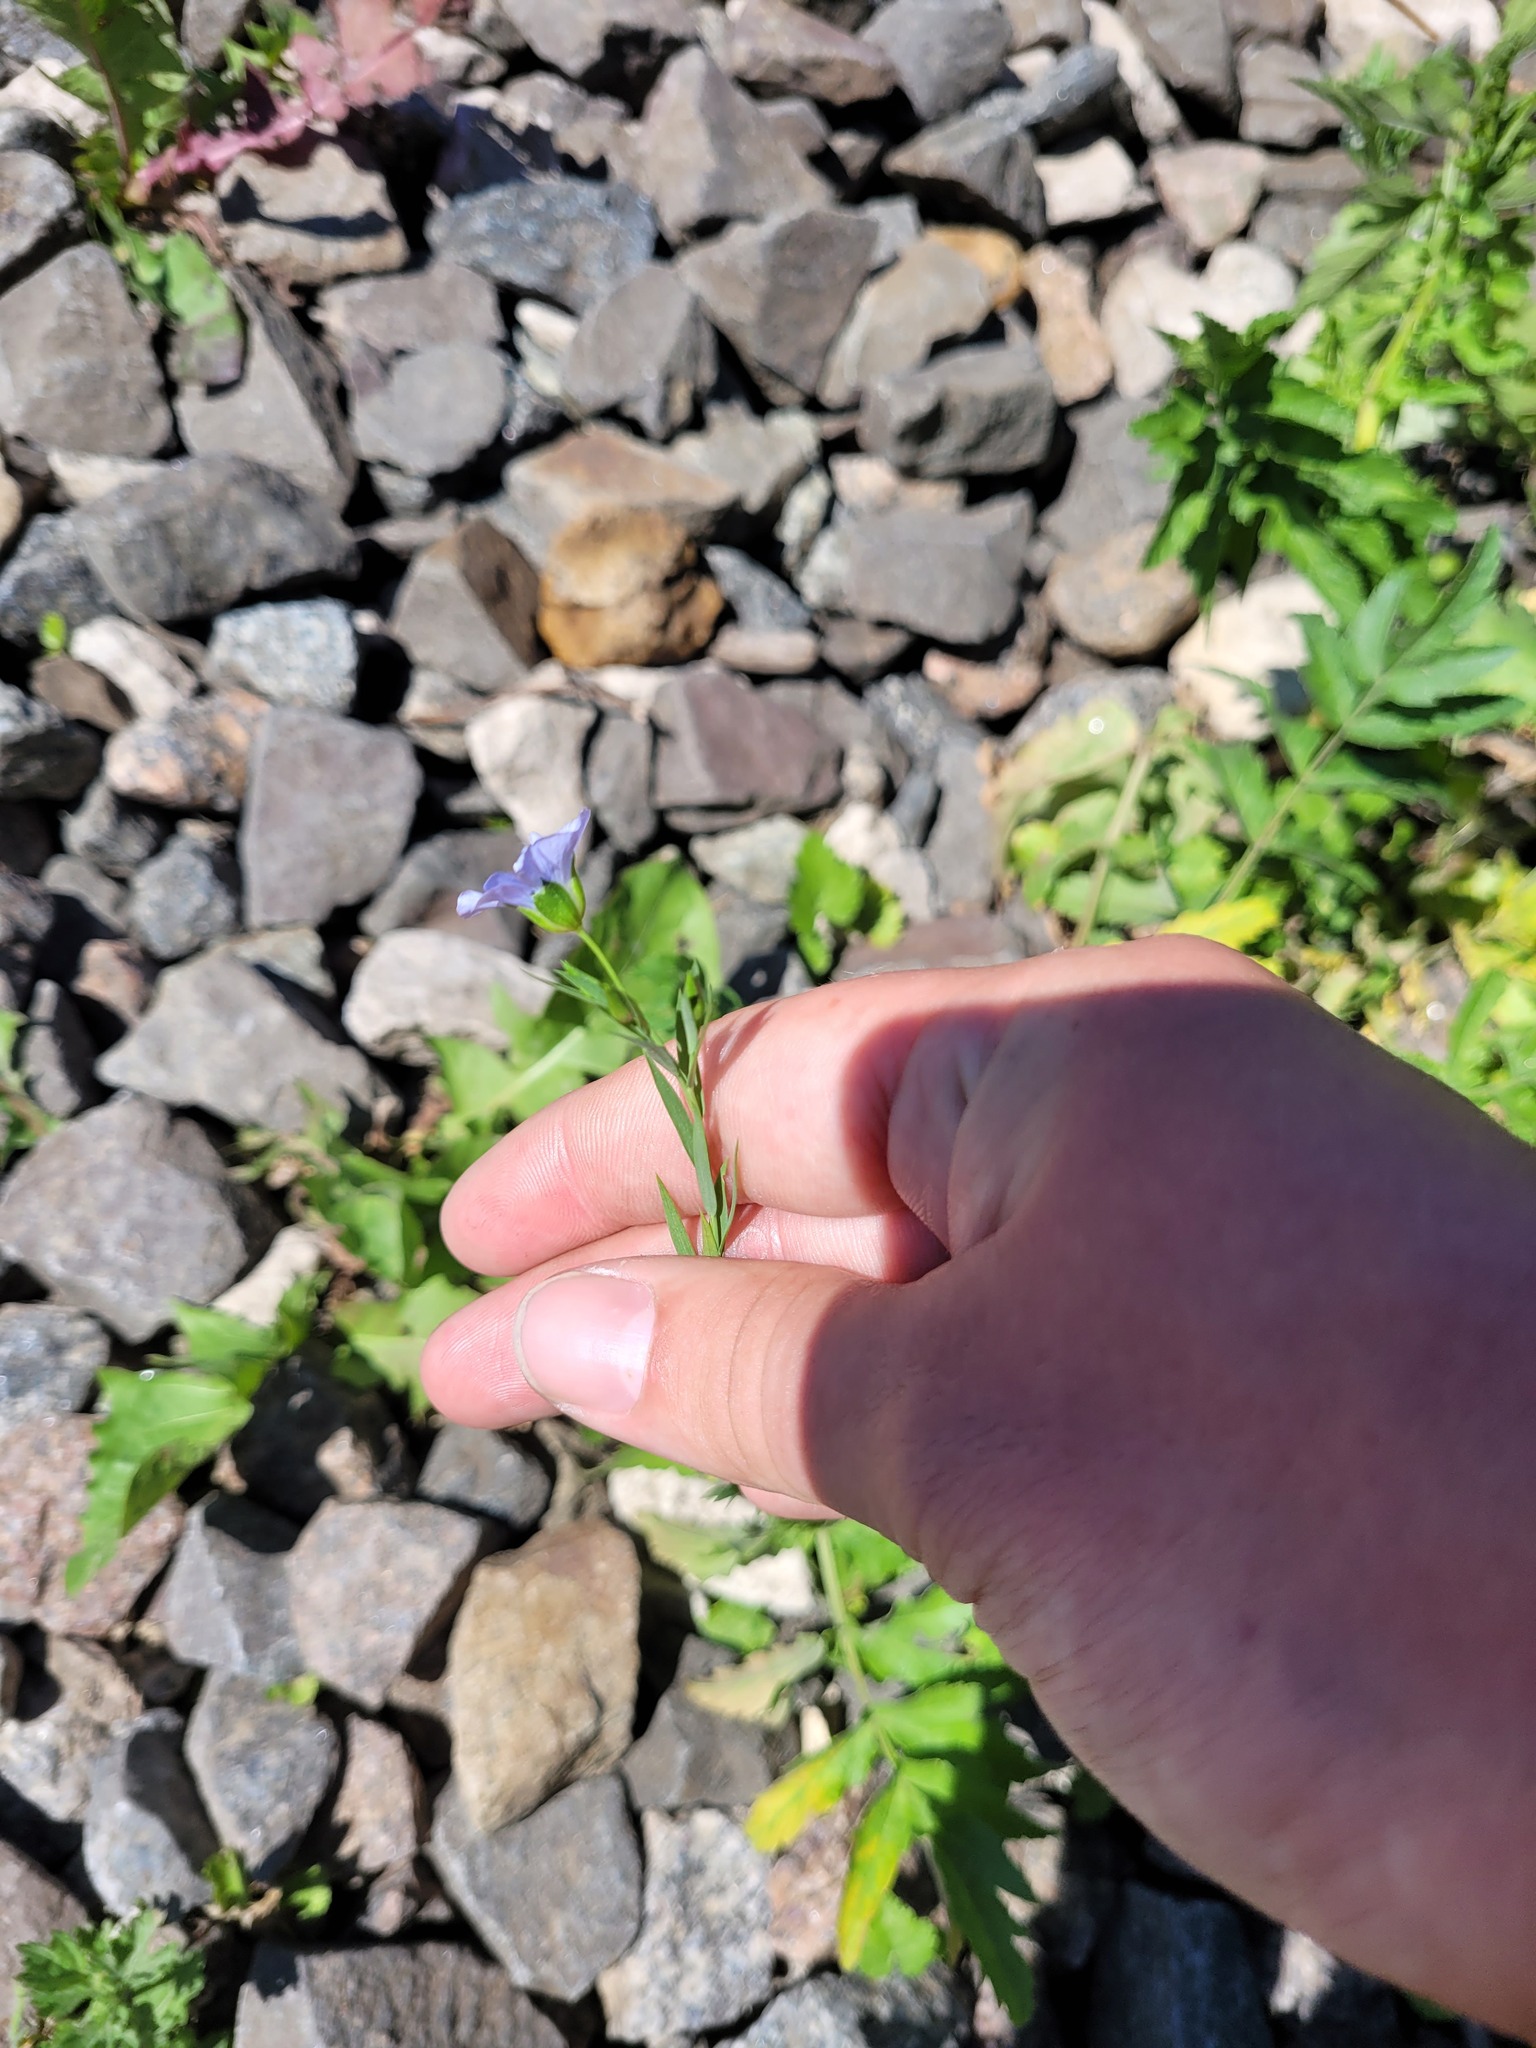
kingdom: Plantae
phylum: Tracheophyta
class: Magnoliopsida
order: Malpighiales
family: Linaceae
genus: Linum
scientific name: Linum usitatissimum
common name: Flax
